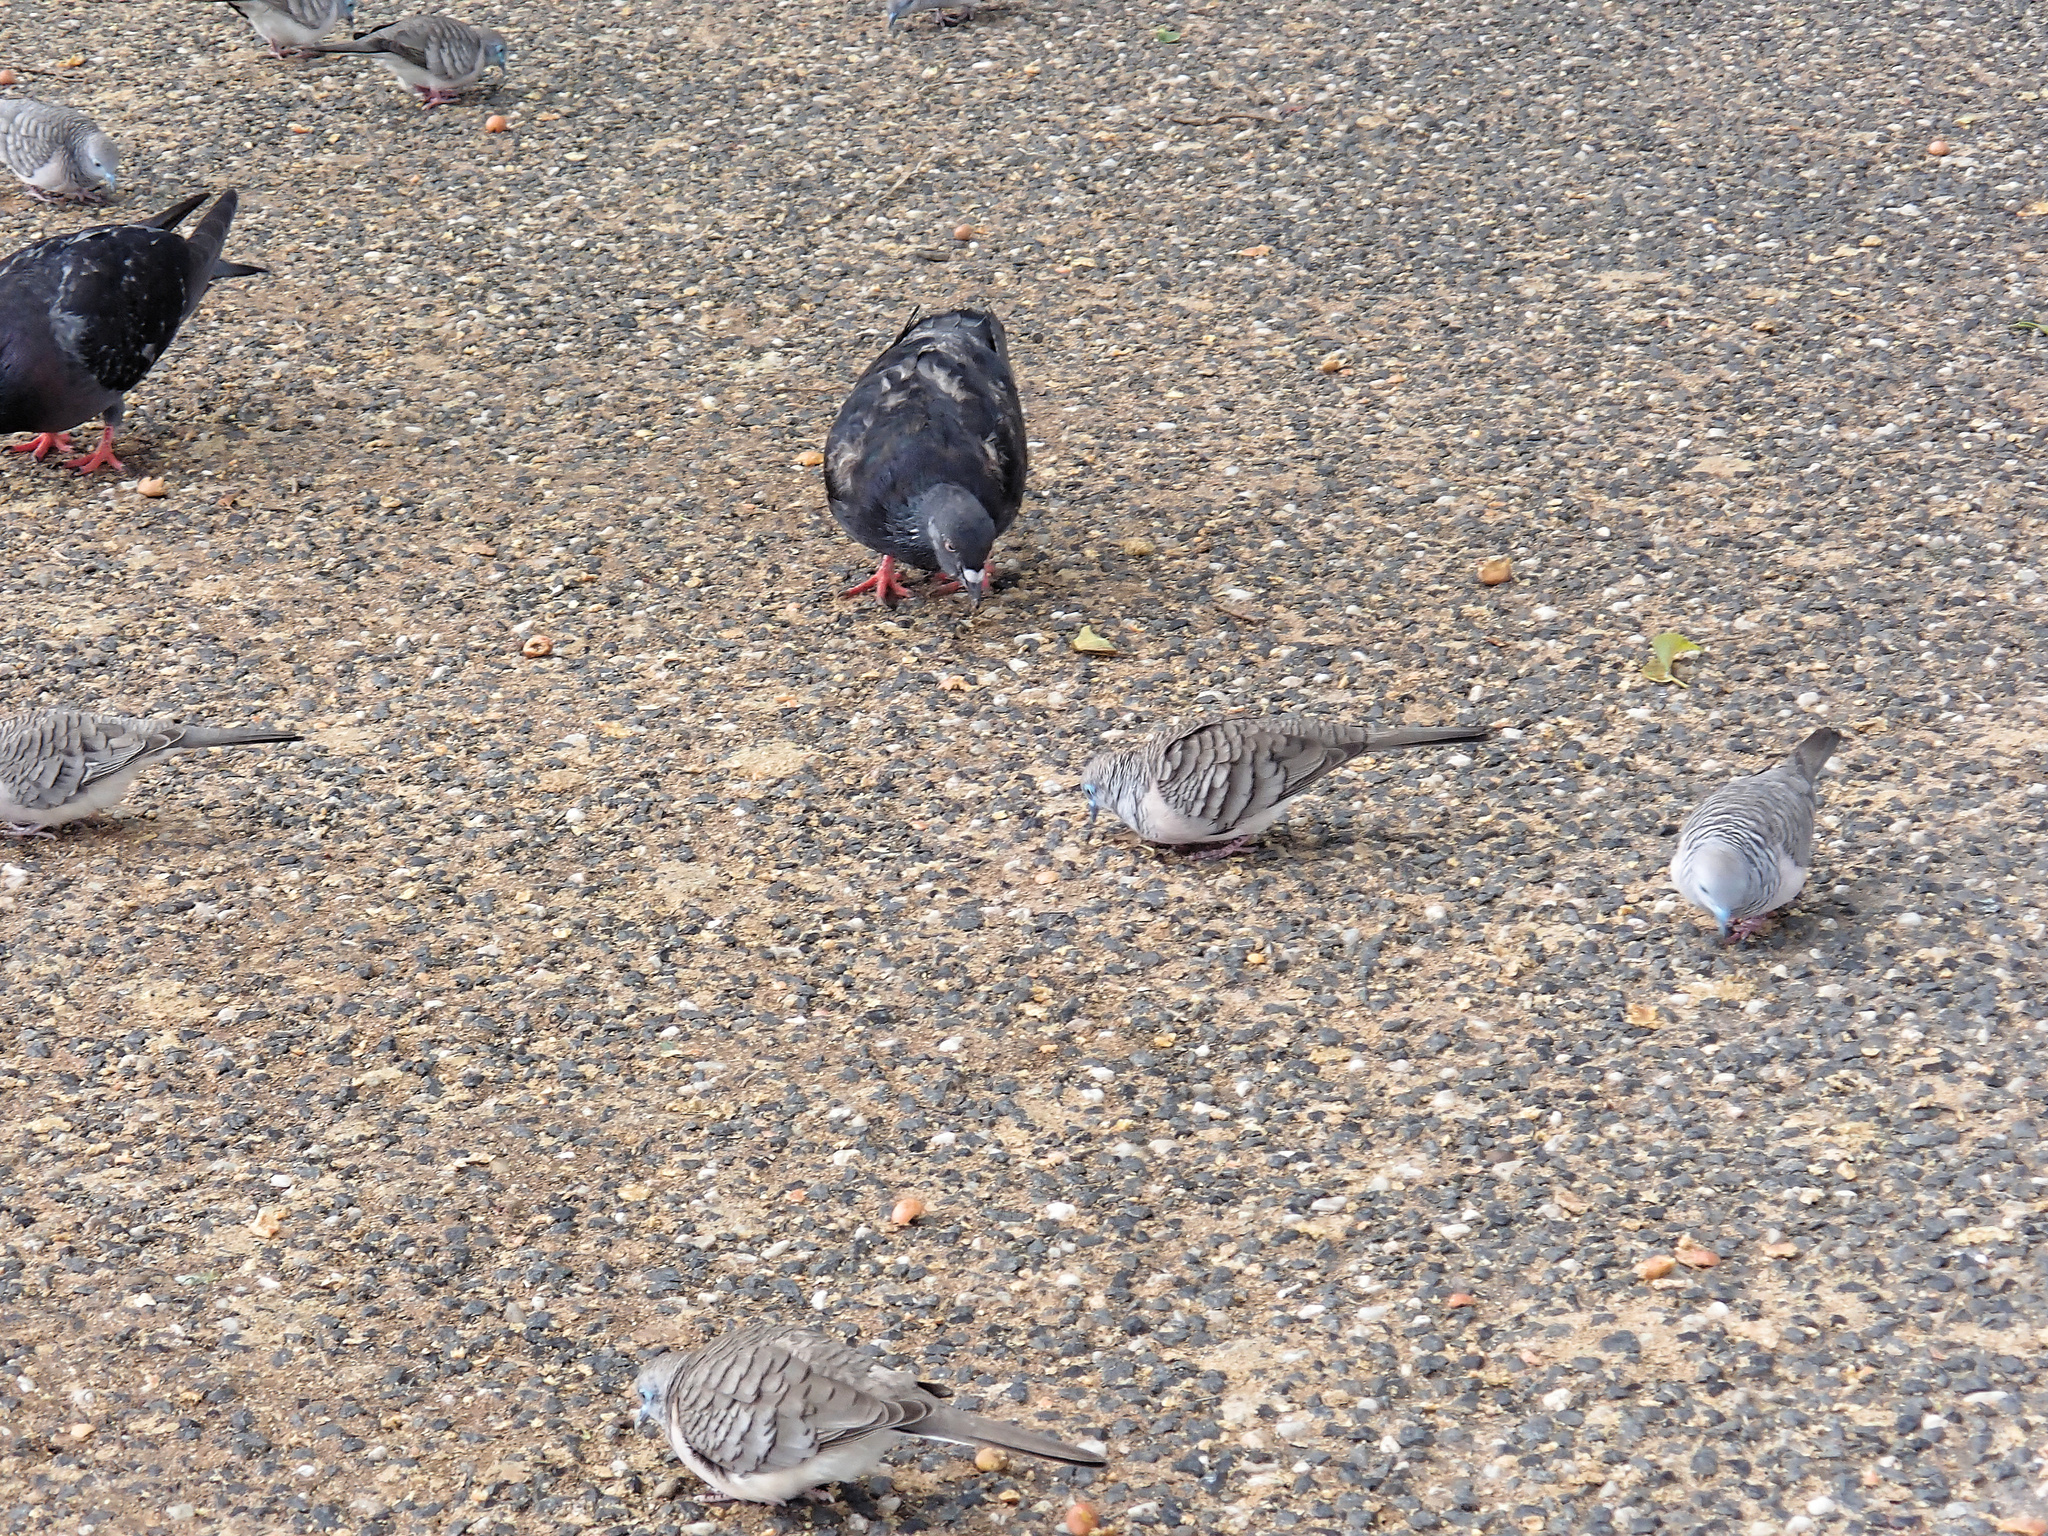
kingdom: Animalia
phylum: Chordata
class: Aves
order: Columbiformes
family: Columbidae
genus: Geopelia
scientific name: Geopelia placida
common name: Peaceful dove
